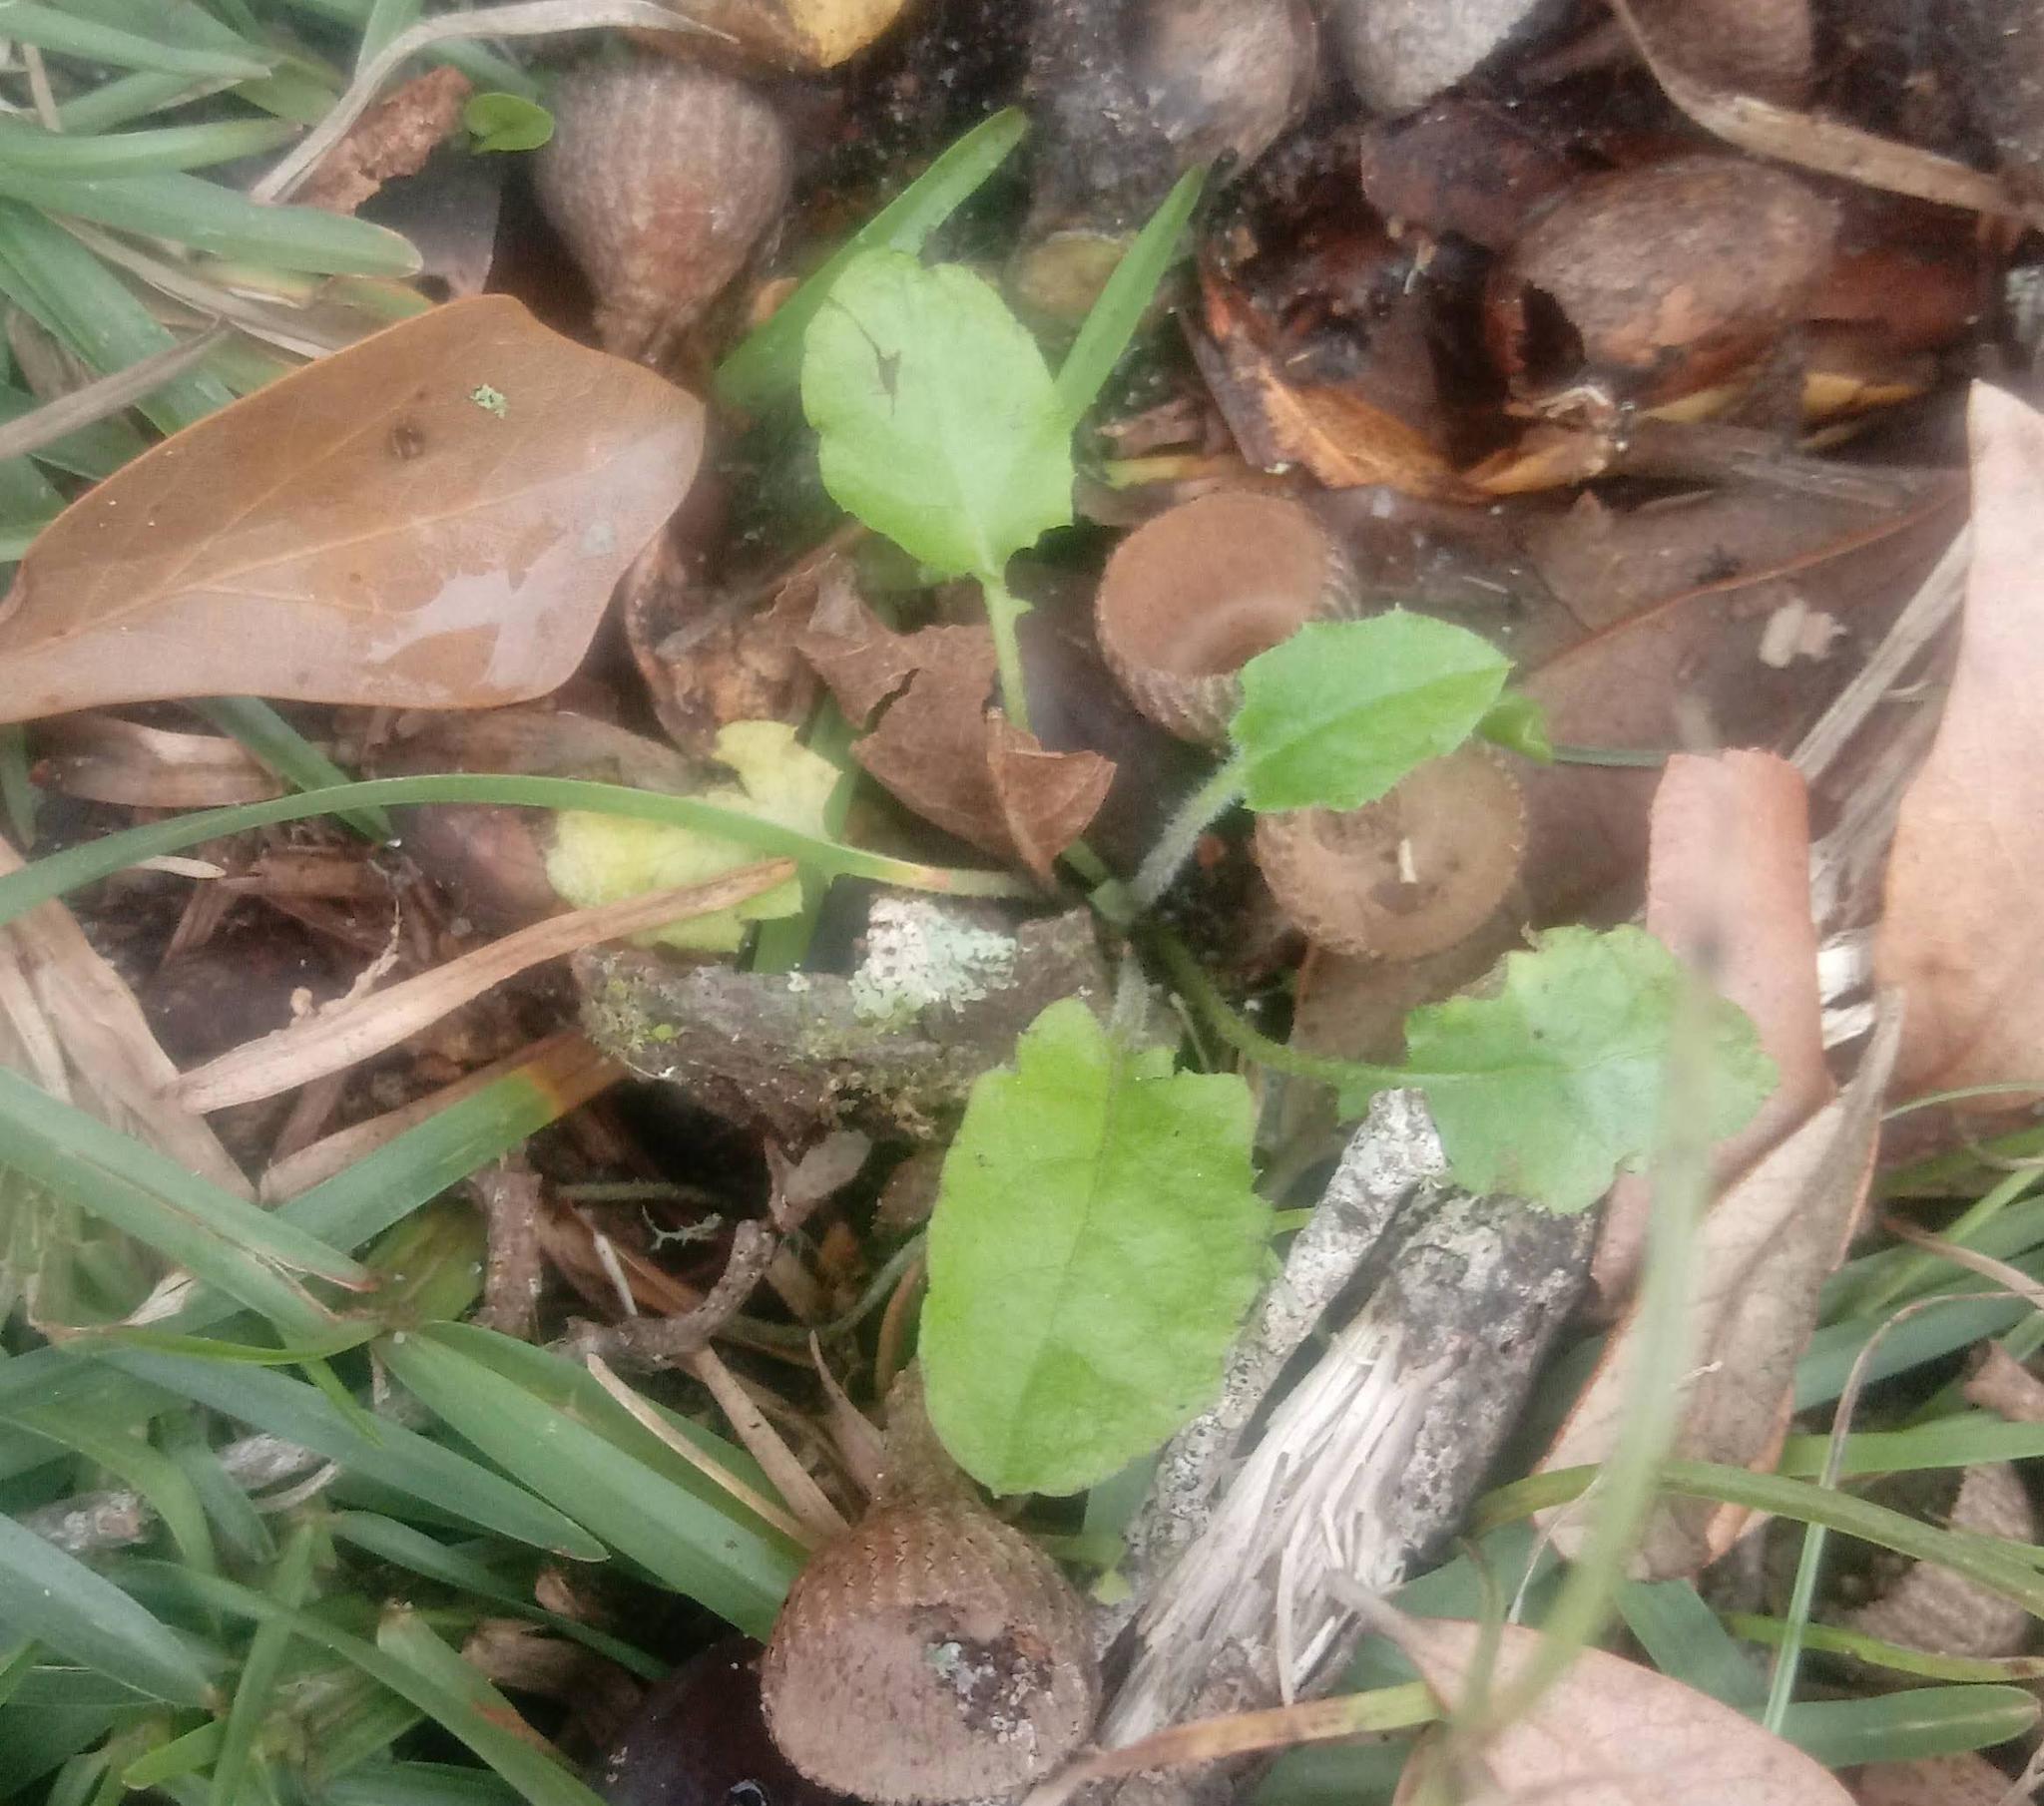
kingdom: Plantae
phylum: Tracheophyta
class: Magnoliopsida
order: Asterales
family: Asteraceae
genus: Youngia
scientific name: Youngia japonica
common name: Oriental false hawksbeard
